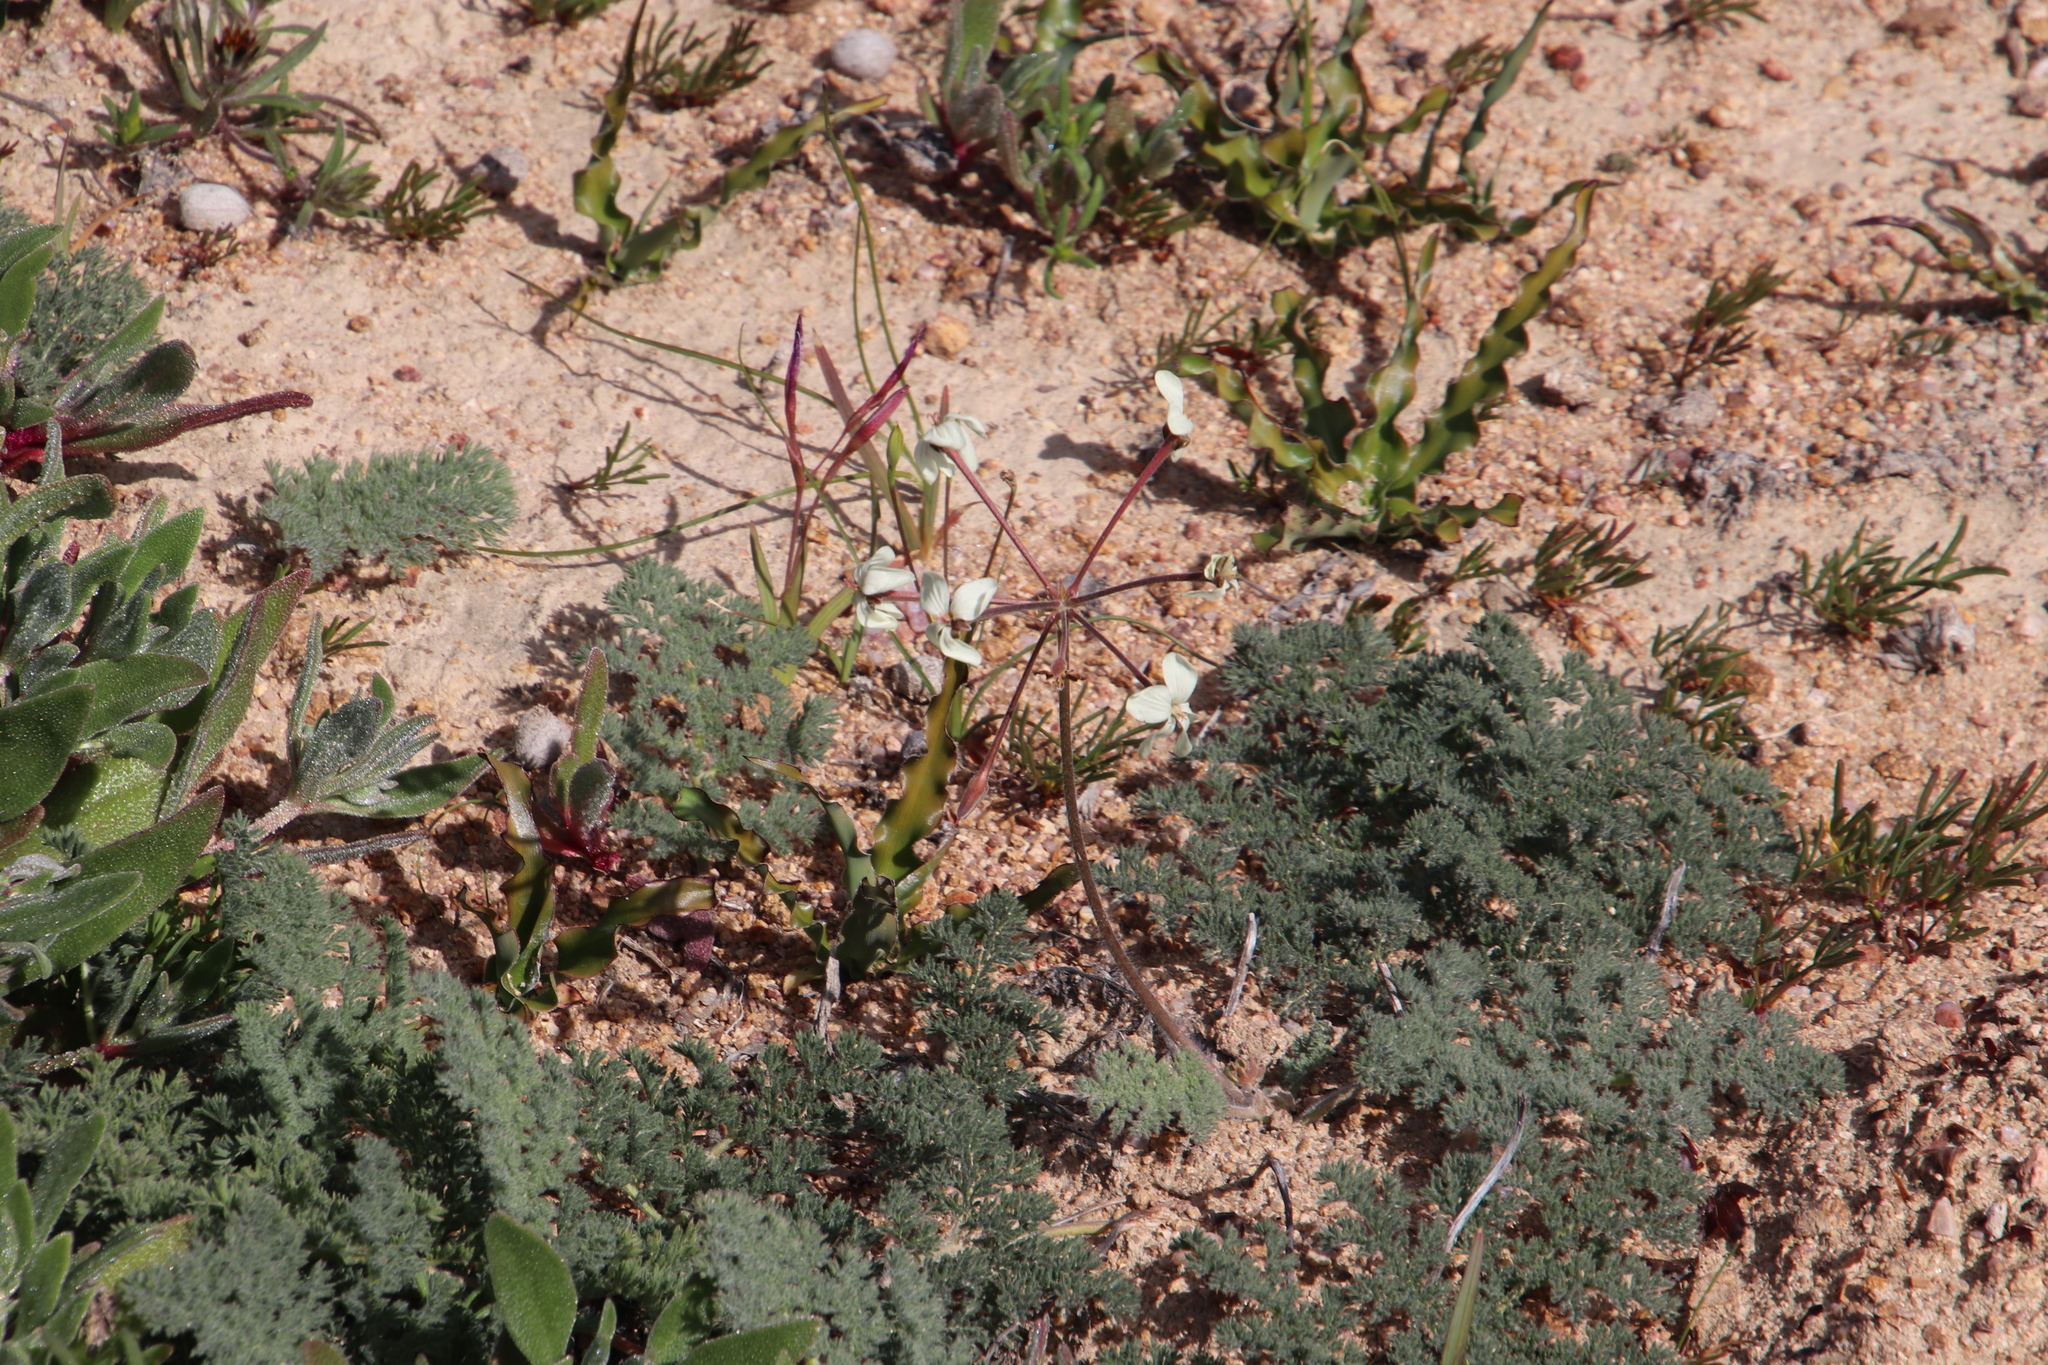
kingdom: Plantae
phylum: Tracheophyta
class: Magnoliopsida
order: Geraniales
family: Geraniaceae
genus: Pelargonium
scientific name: Pelargonium triste
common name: Night-scent pelargonium
